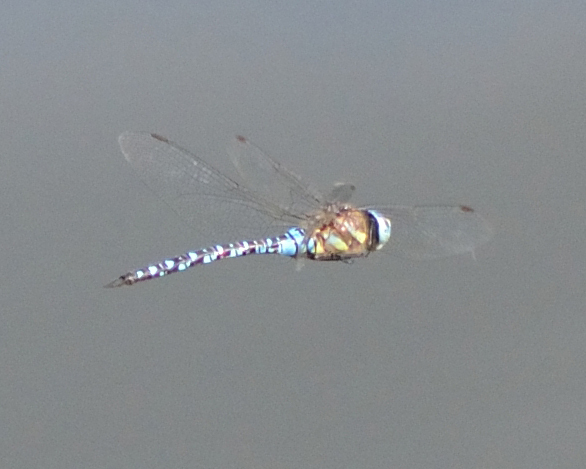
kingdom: Animalia
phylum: Arthropoda
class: Insecta
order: Odonata
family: Aeshnidae
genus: Aeshna
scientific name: Aeshna soneharai
